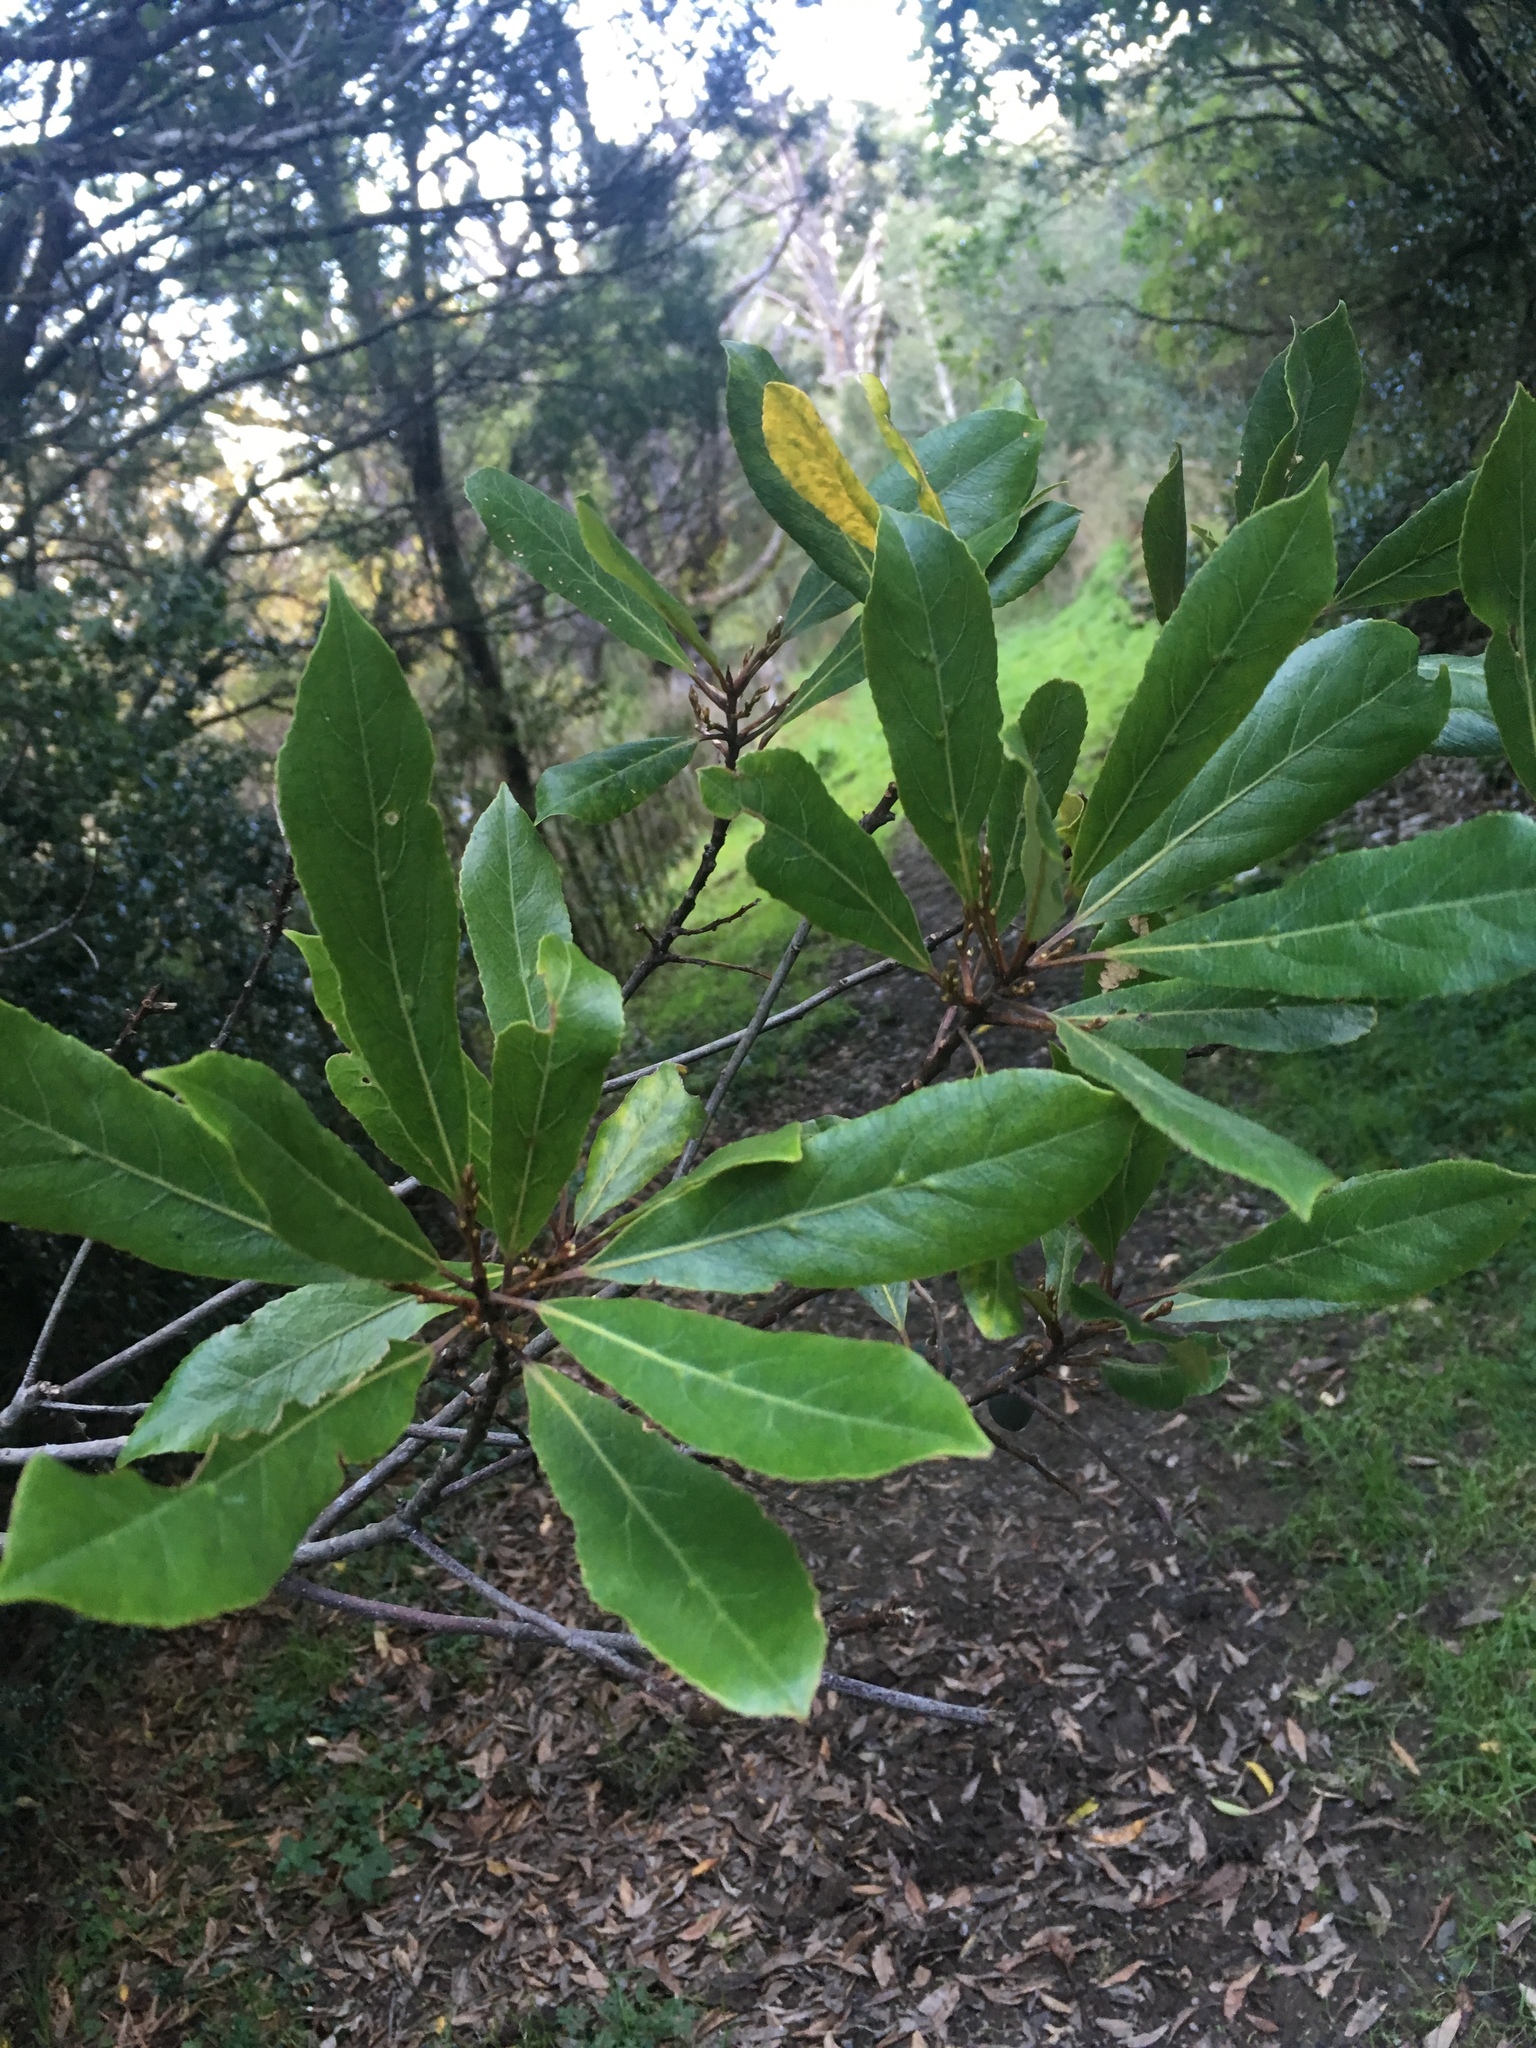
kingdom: Plantae
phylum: Tracheophyta
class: Magnoliopsida
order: Oxalidales
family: Elaeocarpaceae
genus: Elaeocarpus
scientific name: Elaeocarpus dentatus
